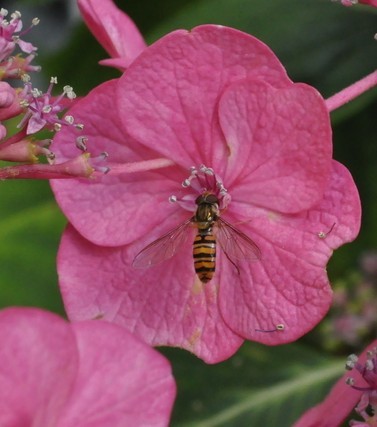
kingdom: Animalia
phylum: Arthropoda
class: Insecta
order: Diptera
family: Syrphidae
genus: Episyrphus
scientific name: Episyrphus balteatus
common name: Marmalade hoverfly
